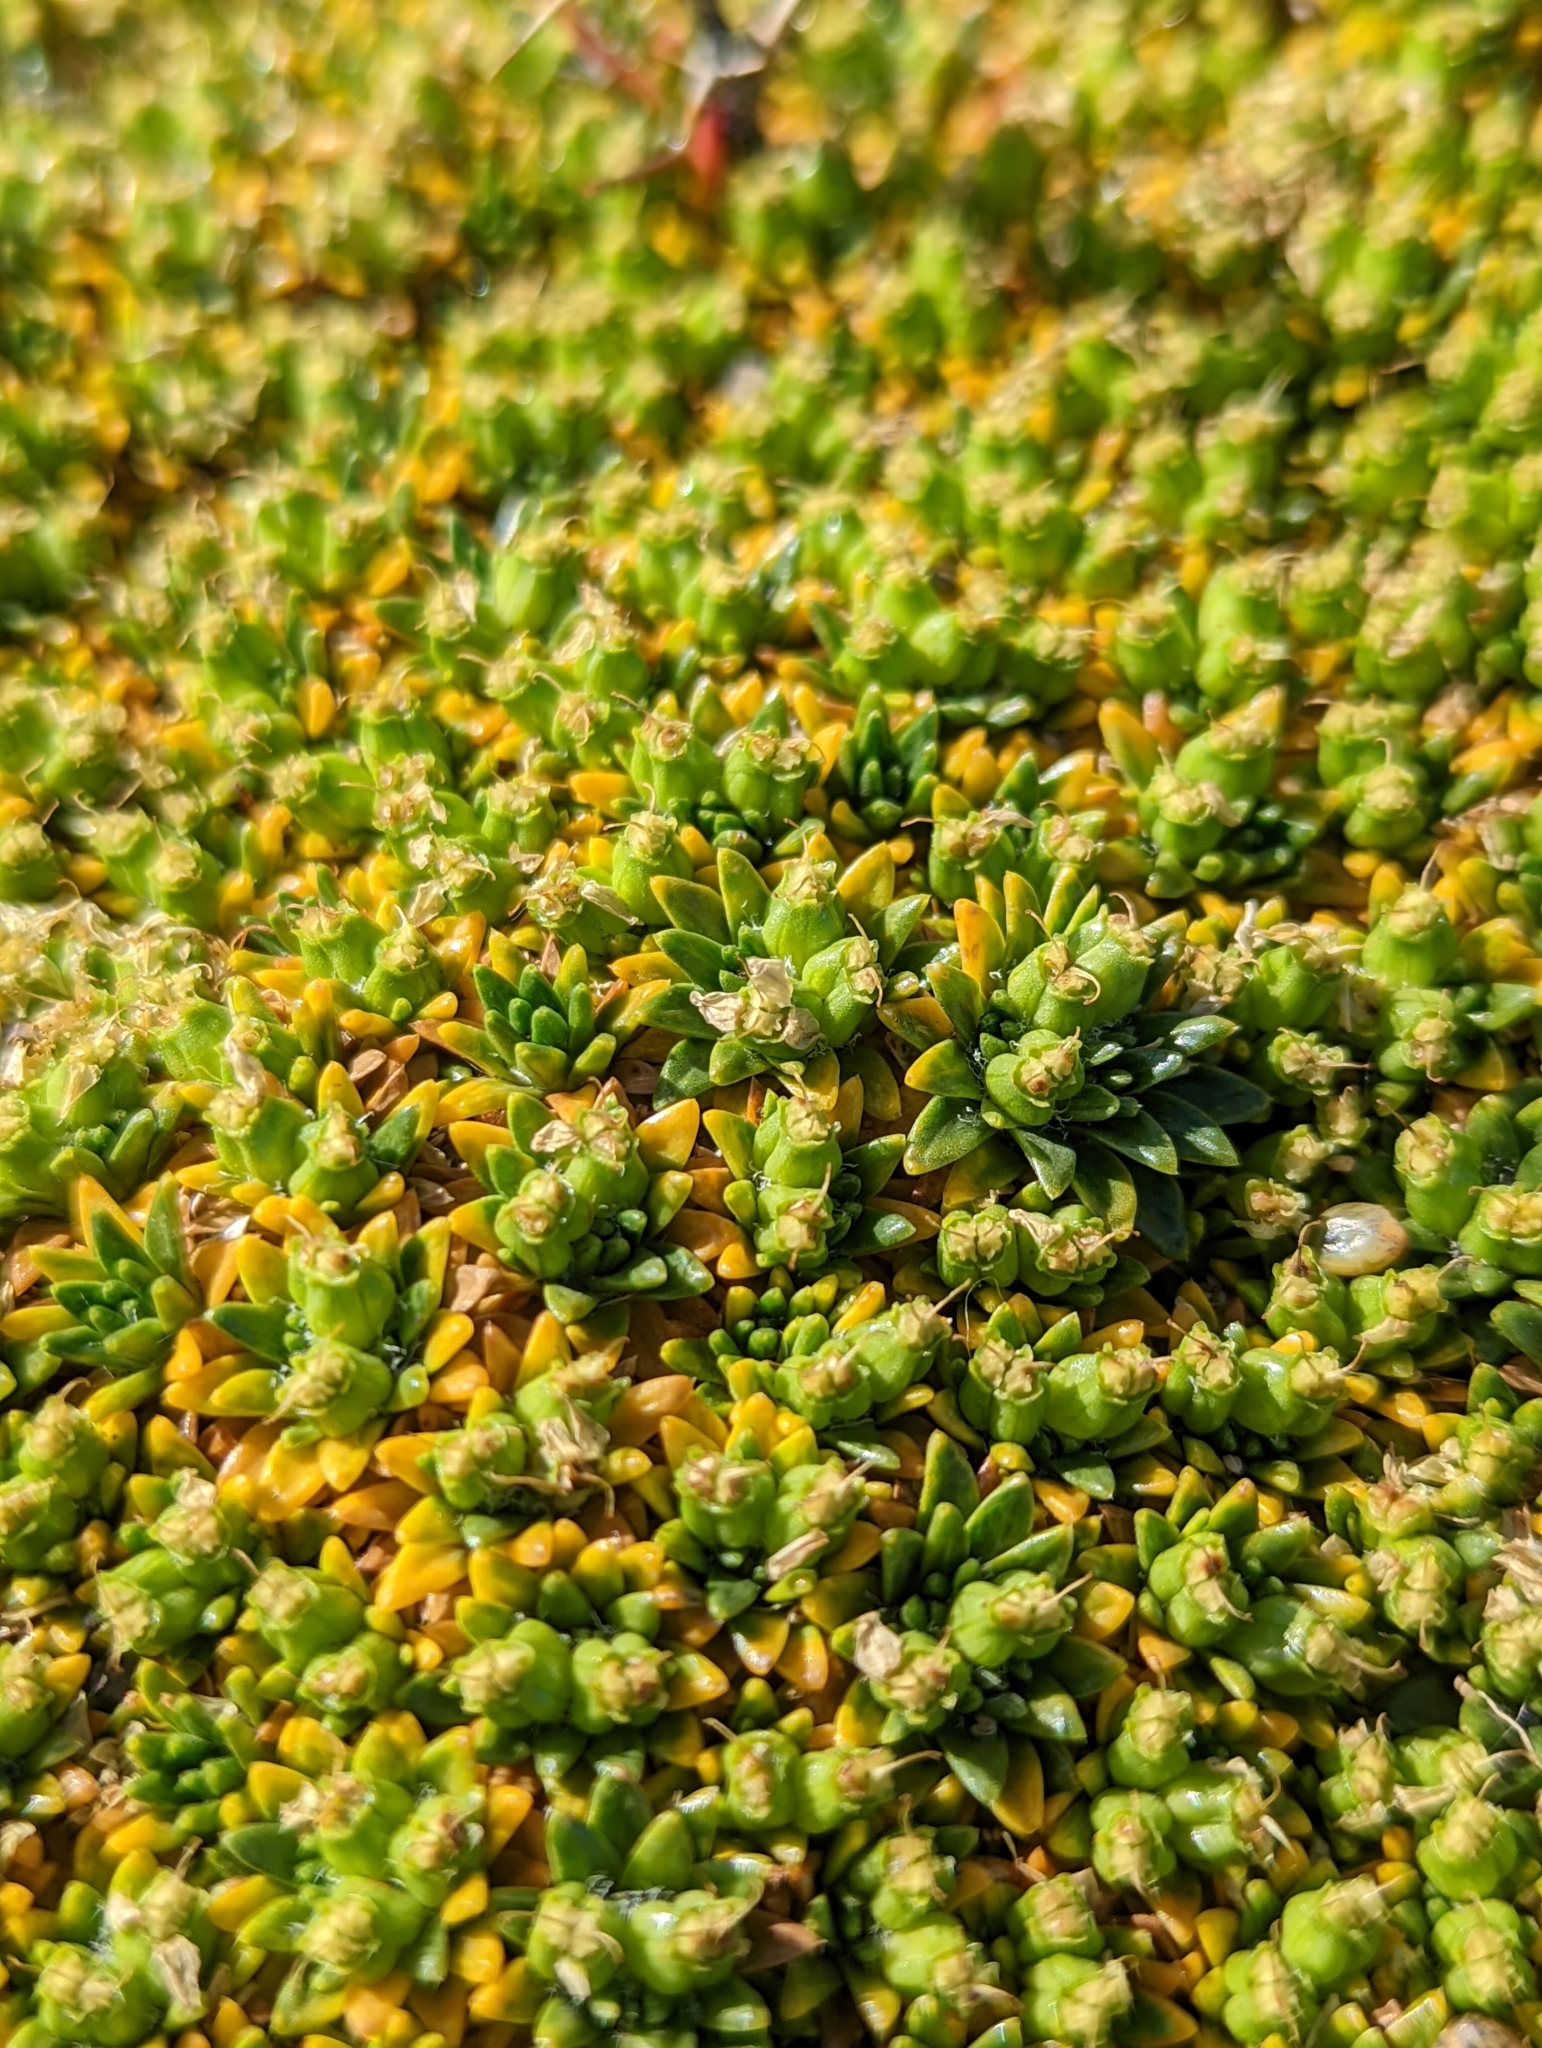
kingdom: Plantae
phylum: Tracheophyta
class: Magnoliopsida
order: Apiales
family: Apiaceae
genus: Azorella
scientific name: Azorella monantha
